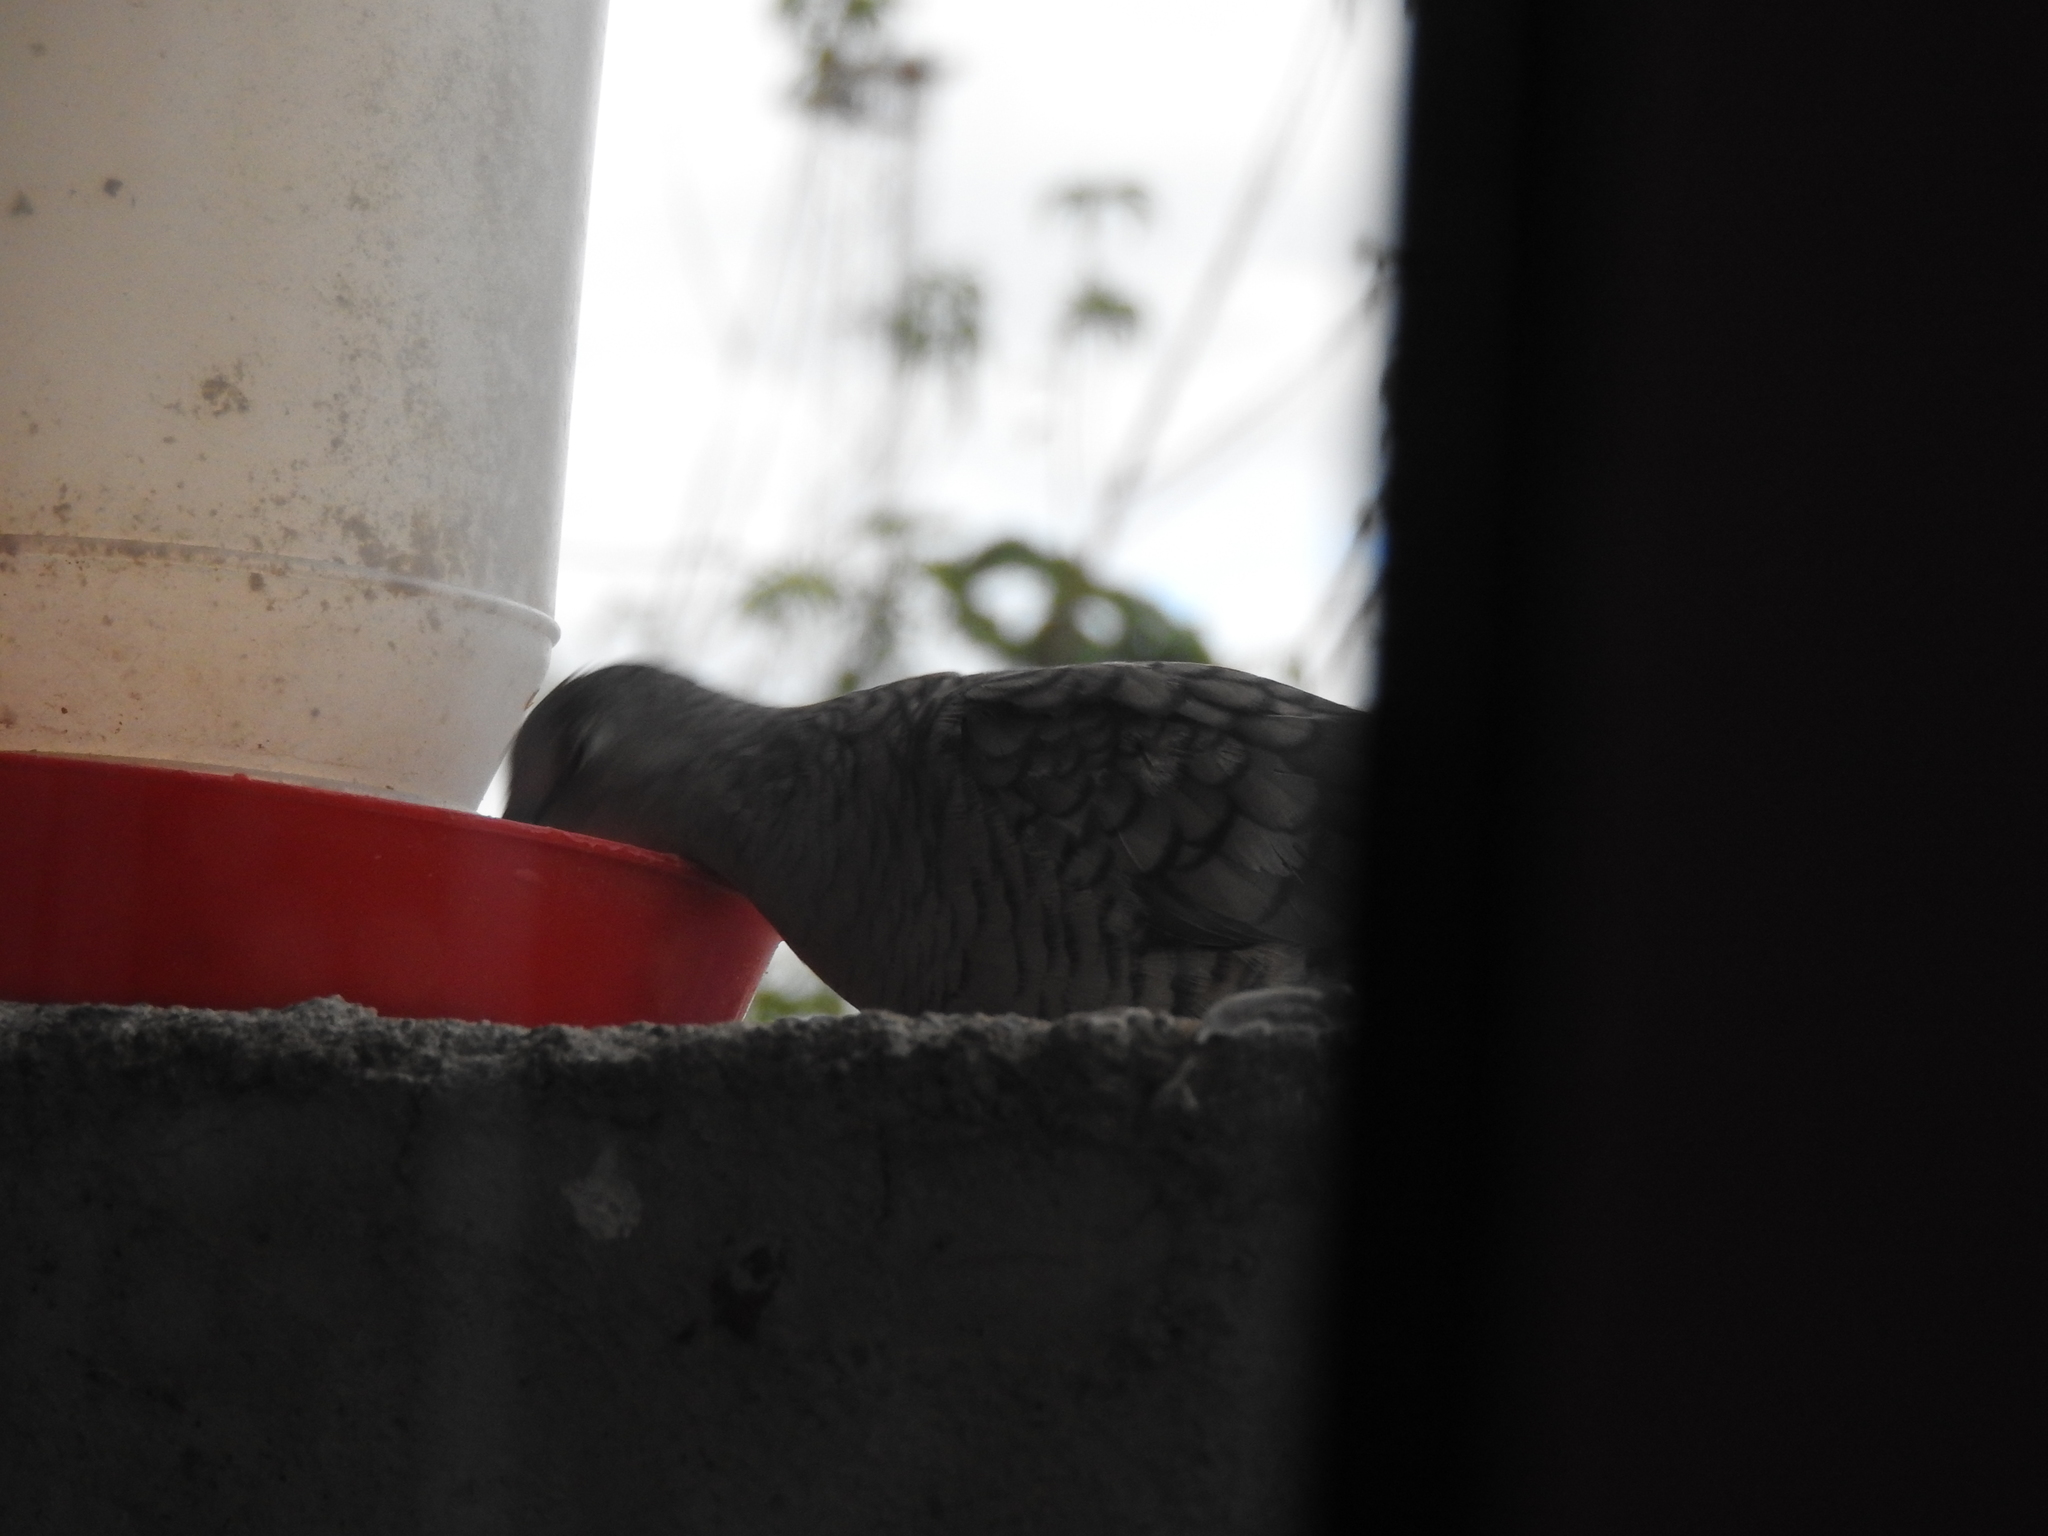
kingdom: Animalia
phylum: Chordata
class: Aves
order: Columbiformes
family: Columbidae
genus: Columbina
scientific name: Columbina inca
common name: Inca dove
